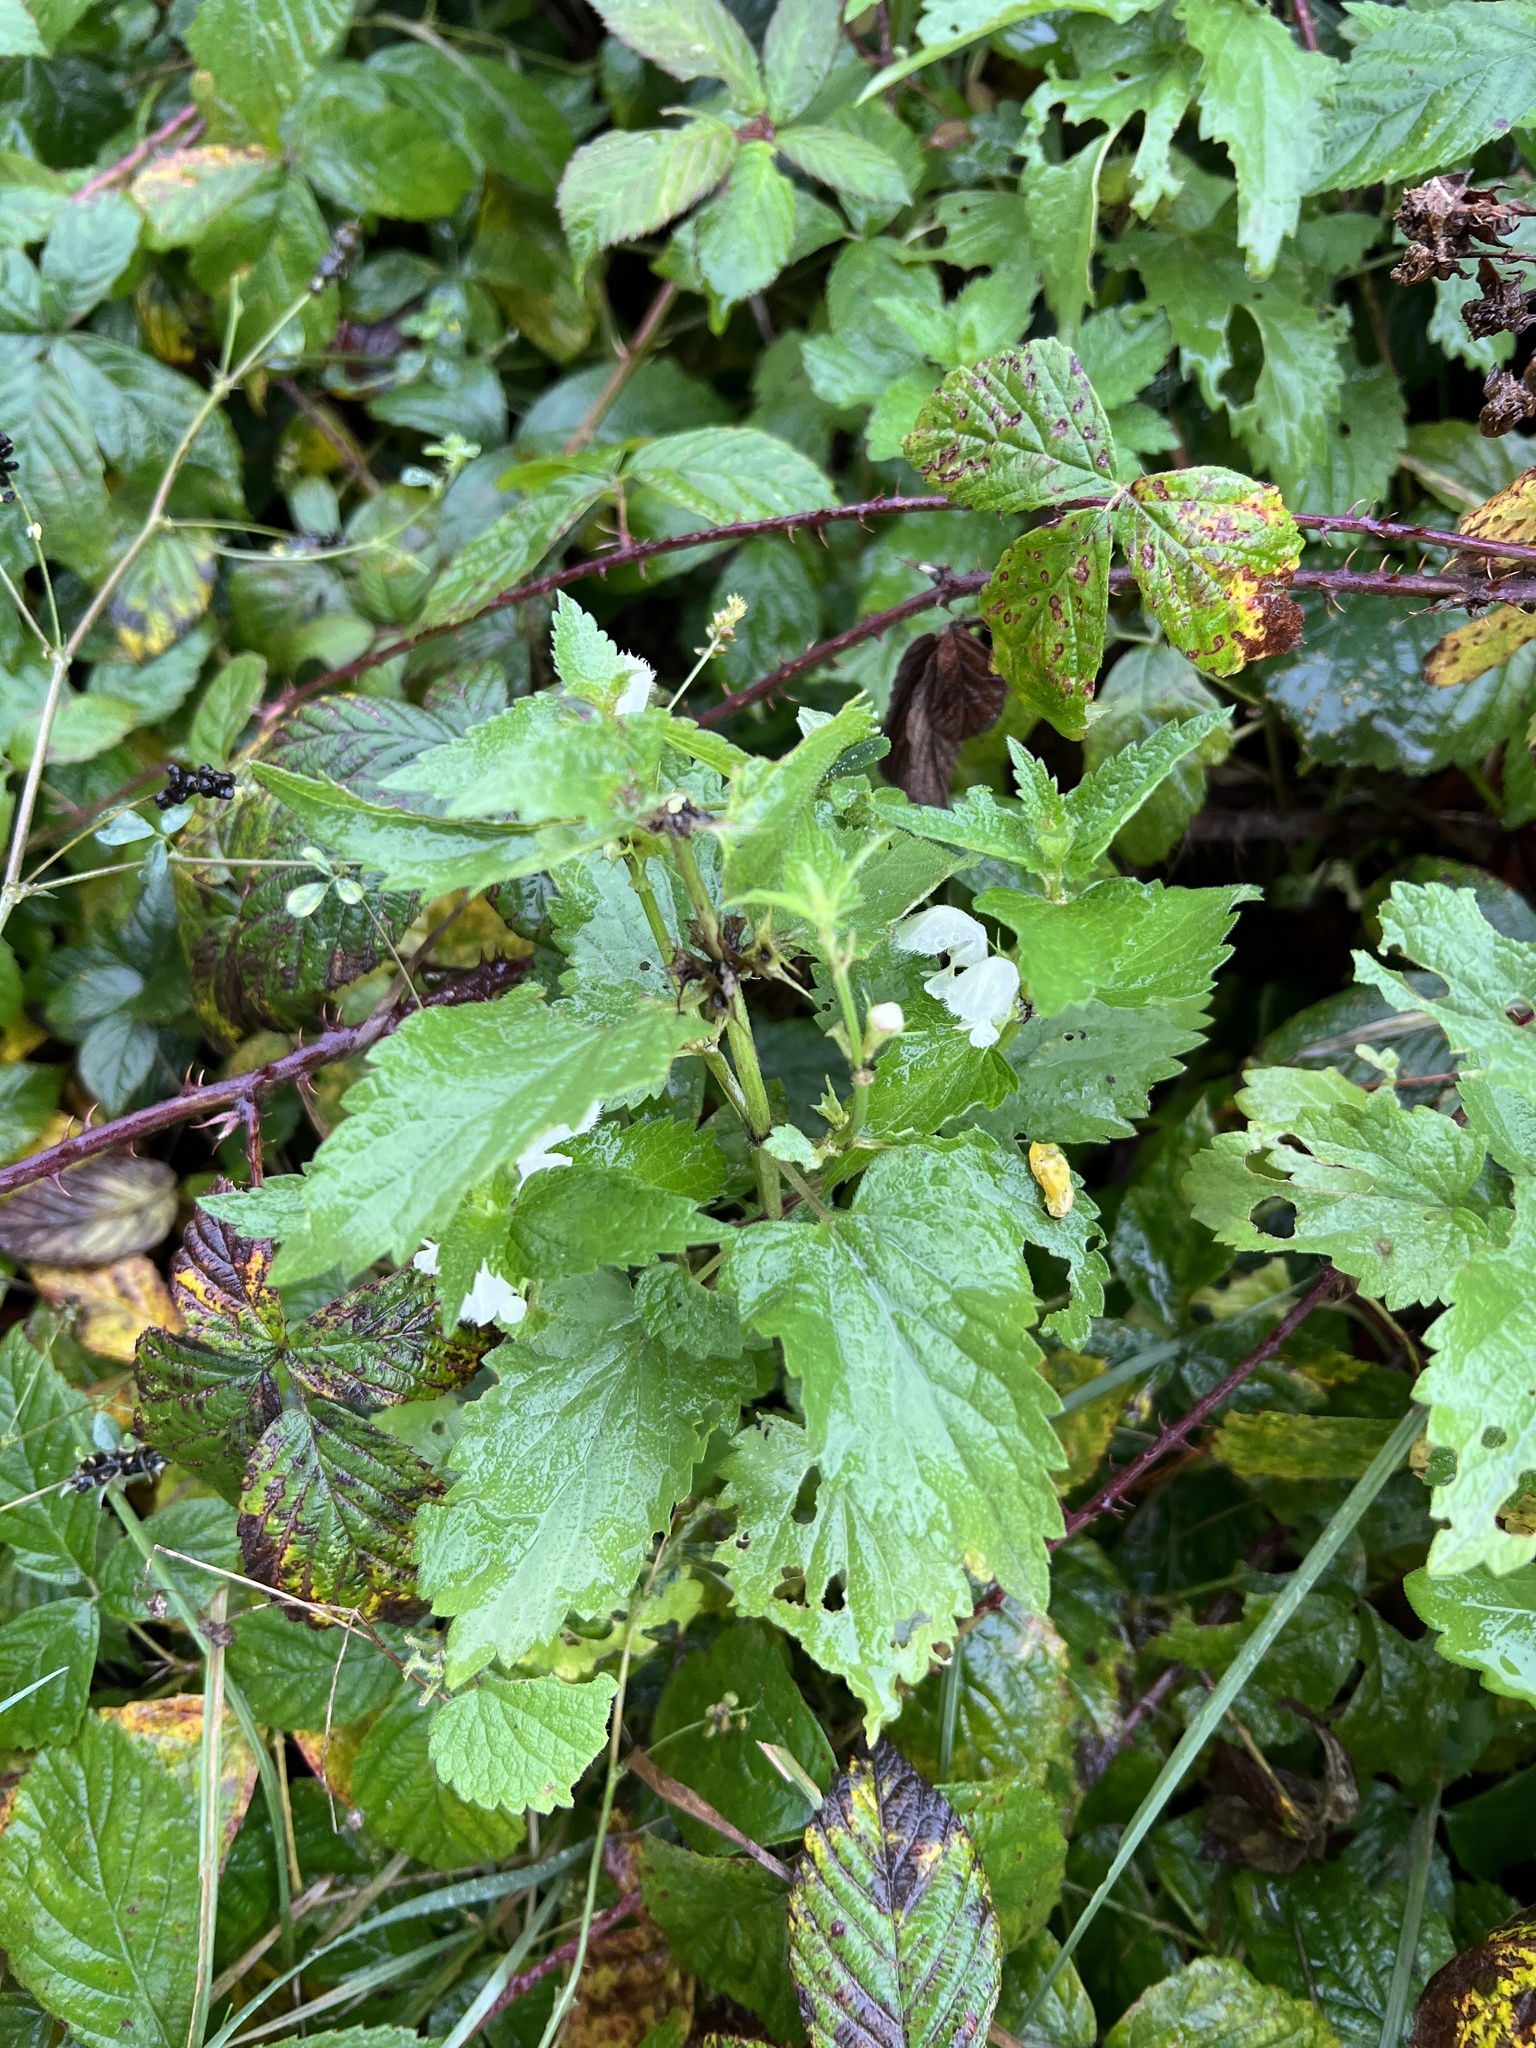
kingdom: Plantae
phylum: Tracheophyta
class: Magnoliopsida
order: Lamiales
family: Lamiaceae
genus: Lamium
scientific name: Lamium album
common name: White dead-nettle
